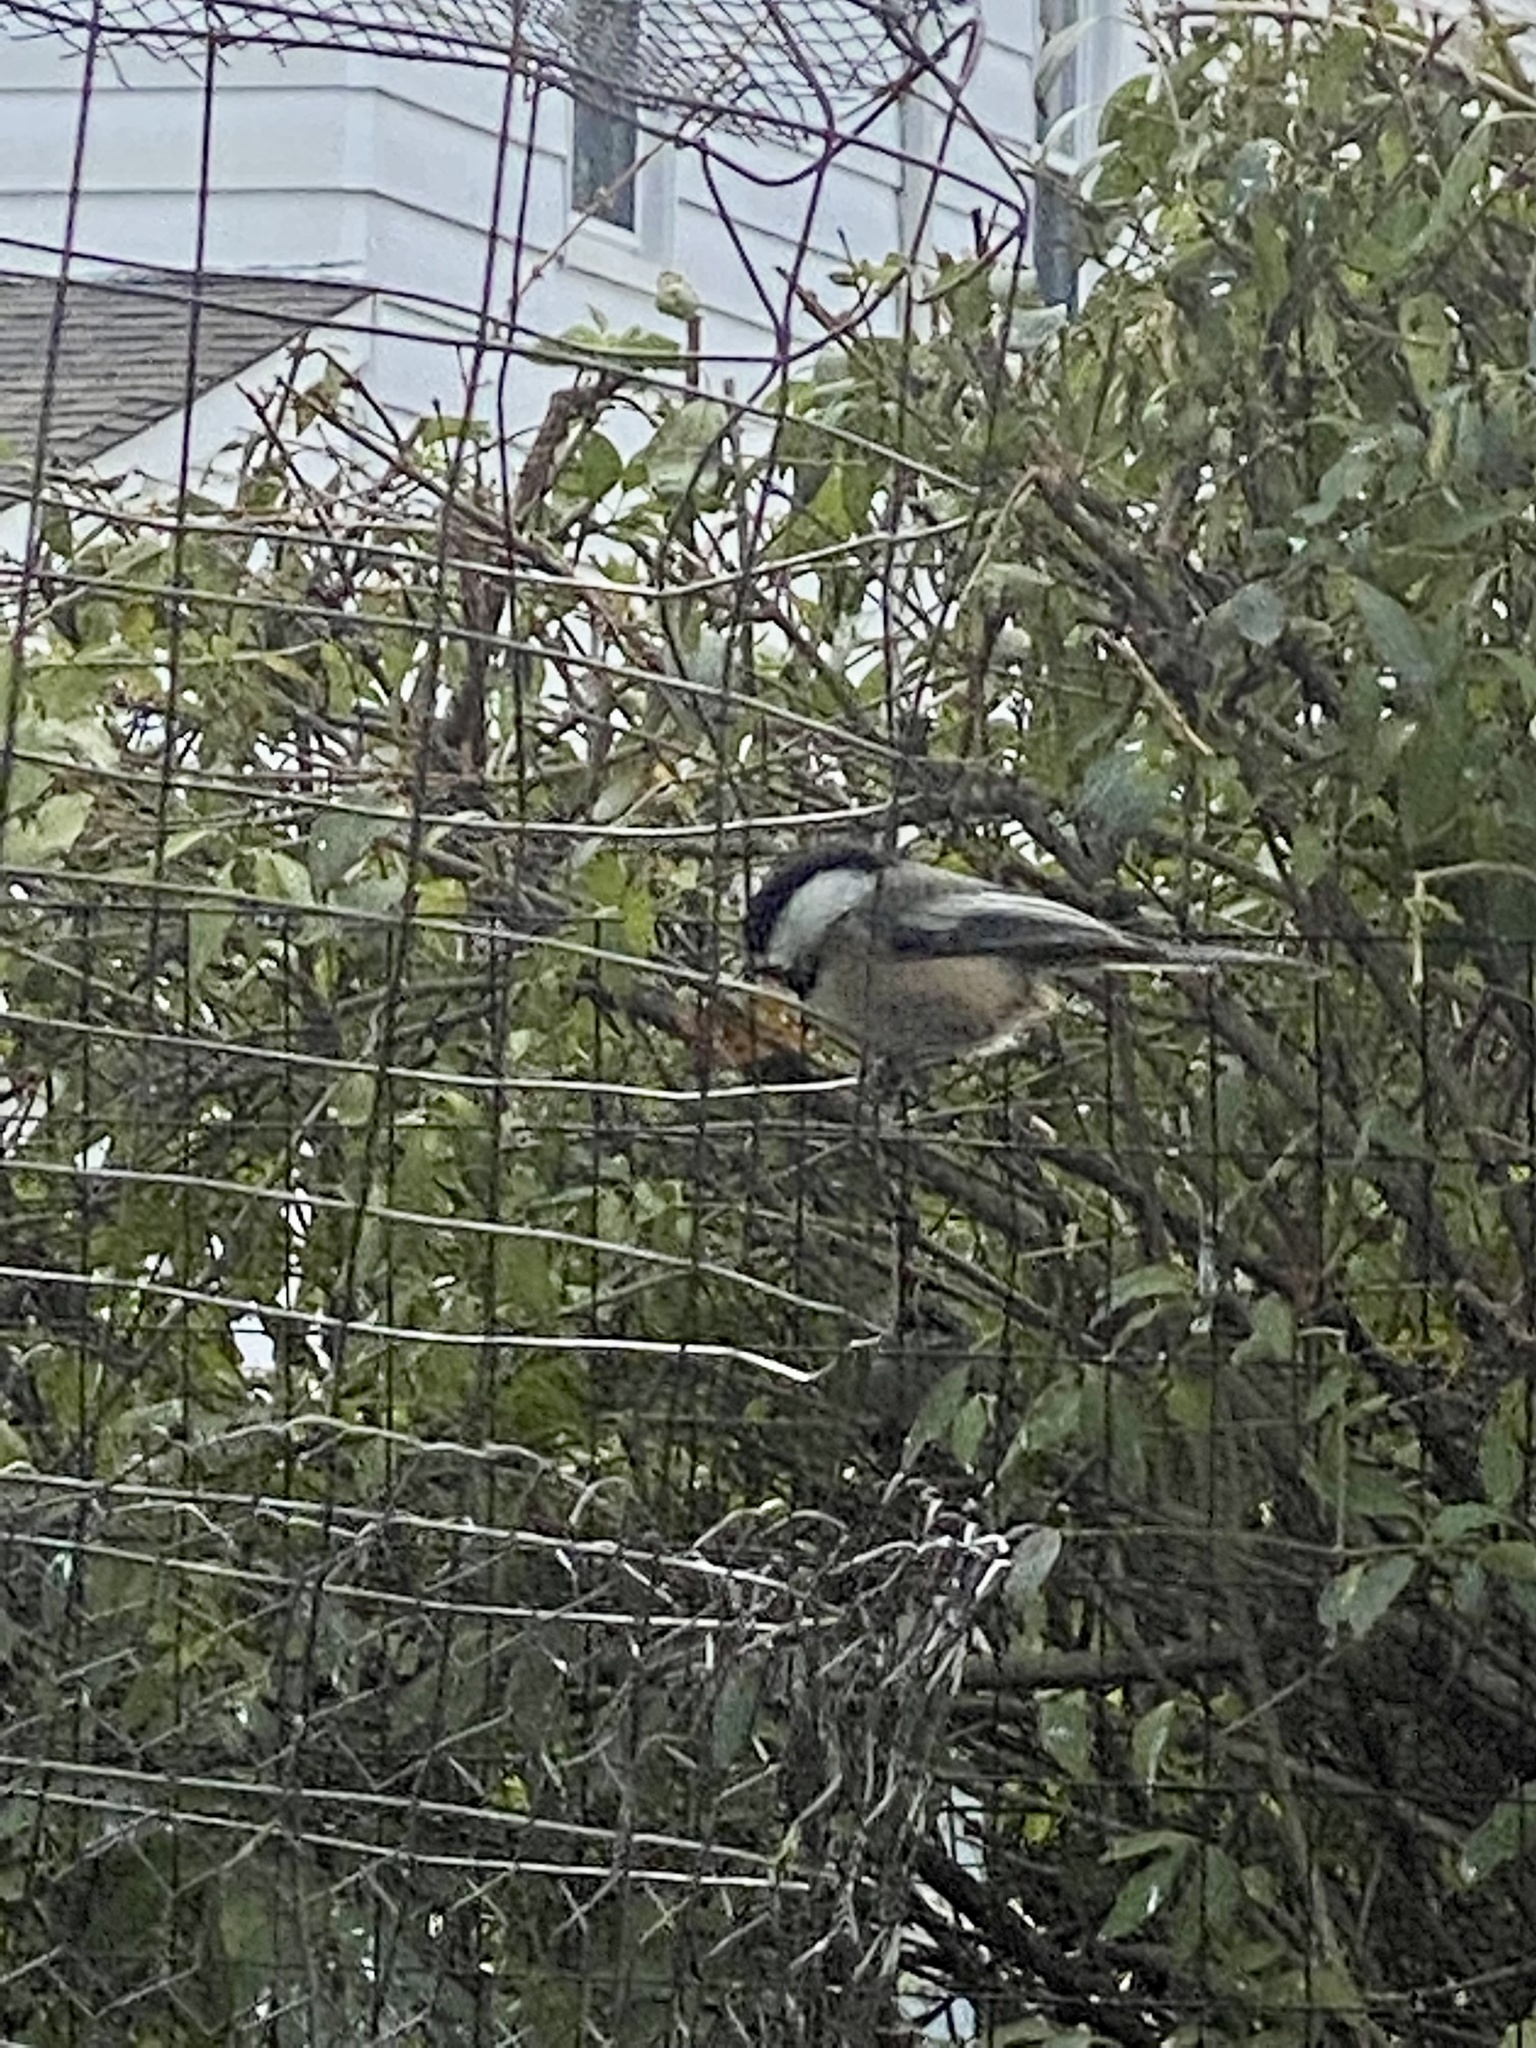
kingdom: Animalia
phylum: Chordata
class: Aves
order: Passeriformes
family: Paridae
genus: Poecile
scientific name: Poecile atricapillus
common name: Black-capped chickadee
